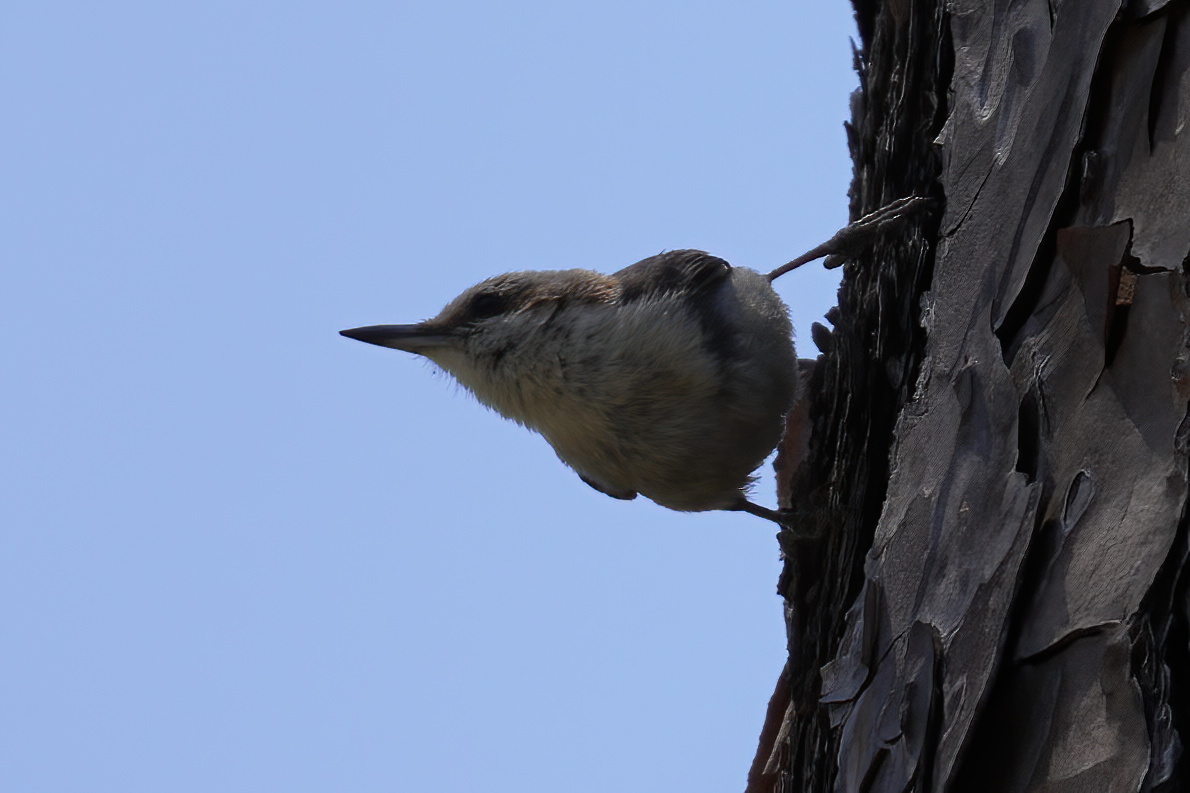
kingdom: Animalia
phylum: Chordata
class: Aves
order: Passeriformes
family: Sittidae
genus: Sitta
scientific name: Sitta pusilla
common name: Brown-headed nuthatch
